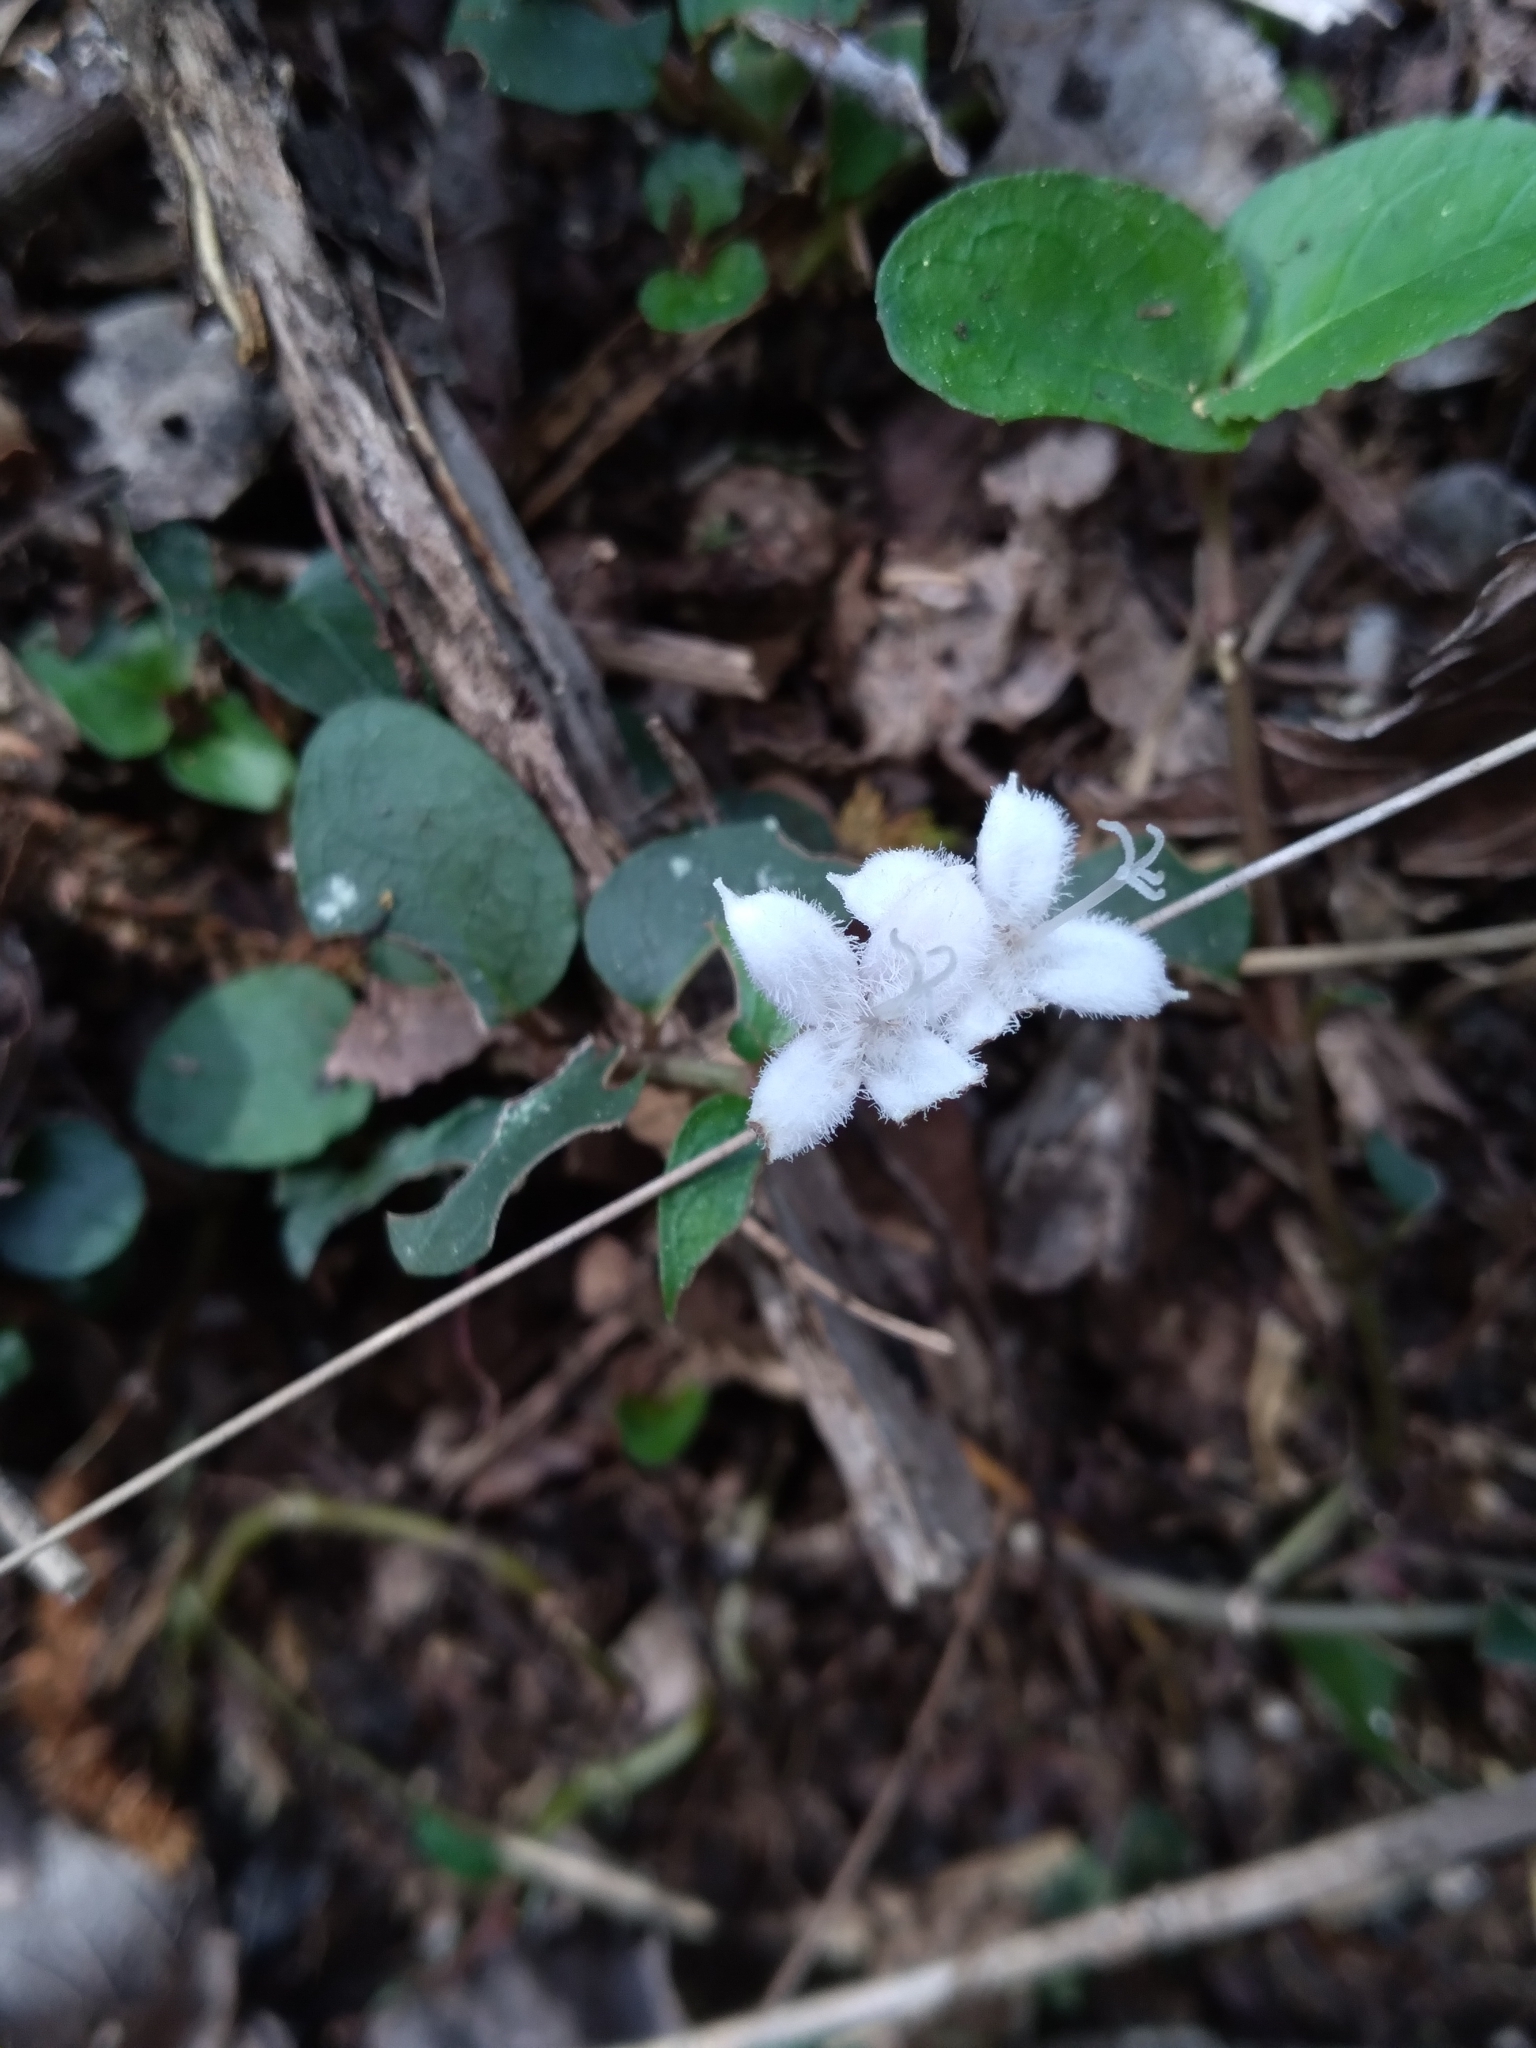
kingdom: Plantae
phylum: Tracheophyta
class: Magnoliopsida
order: Gentianales
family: Rubiaceae
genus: Mitchella
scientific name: Mitchella repens
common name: Partridge-berry
